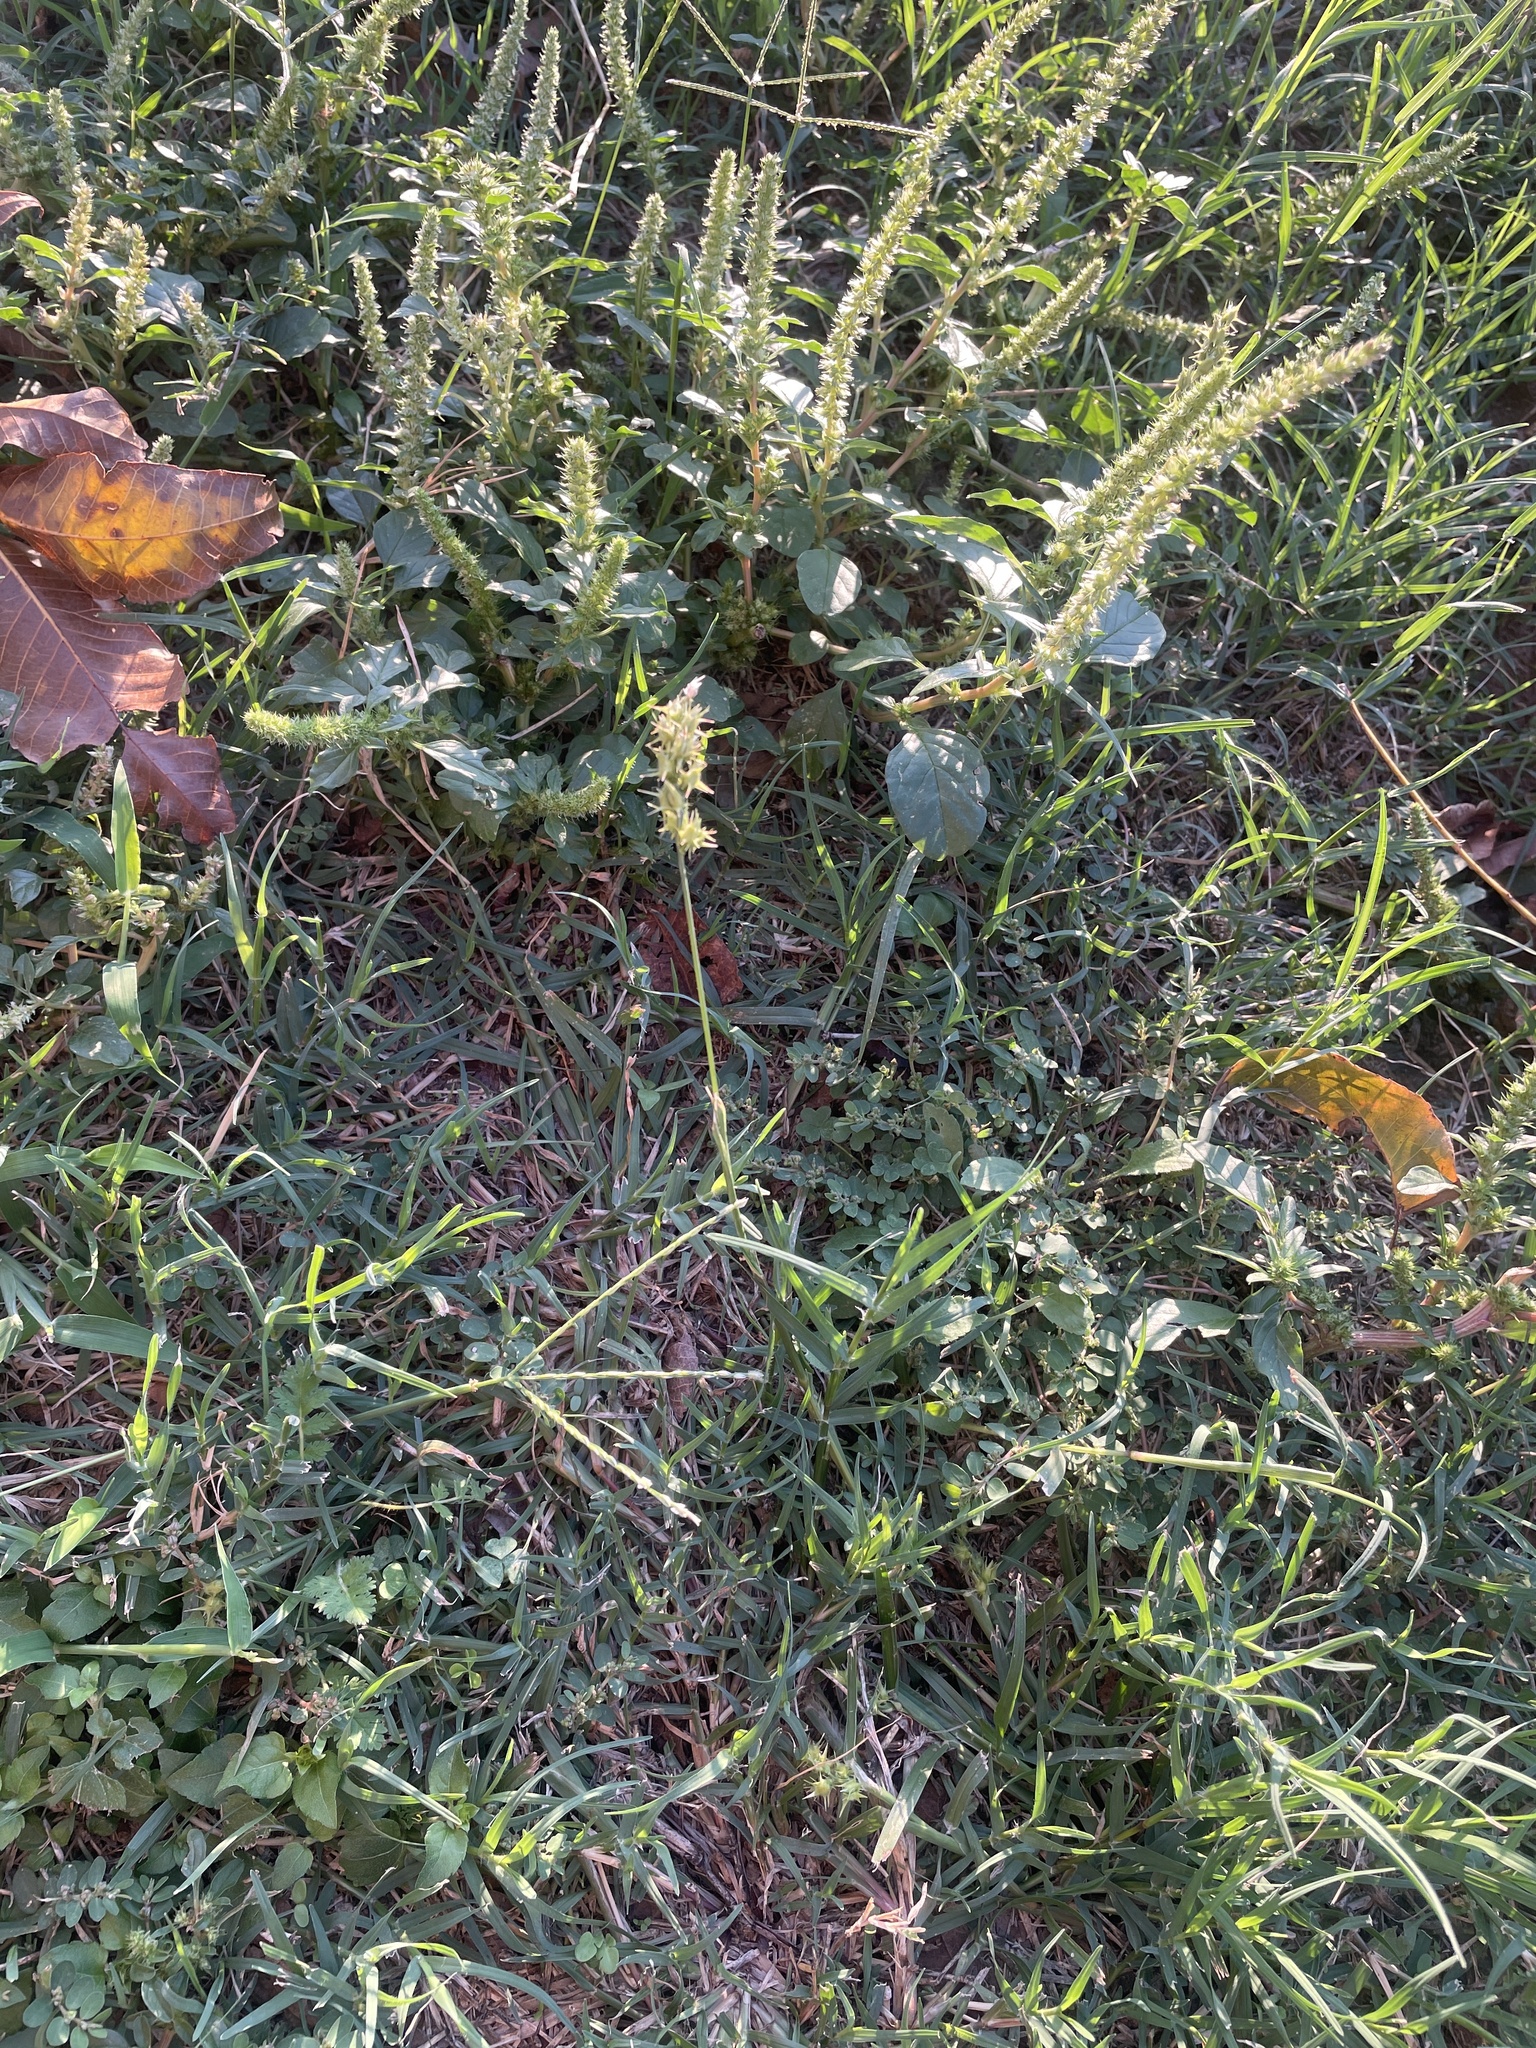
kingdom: Plantae
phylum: Tracheophyta
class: Liliopsida
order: Poales
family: Poaceae
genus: Cenchrus
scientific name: Cenchrus spinifex
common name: Coast sandbur
